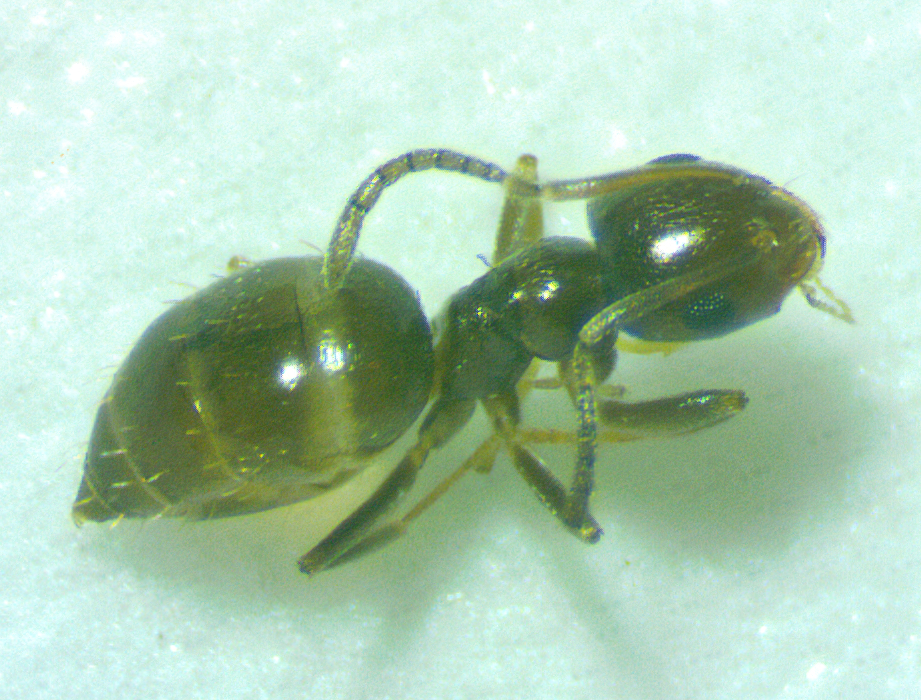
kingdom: Animalia
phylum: Arthropoda
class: Insecta
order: Hymenoptera
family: Formicidae
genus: Brachymyrmex
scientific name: Brachymyrmex patagonicus
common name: Dark rover ant
